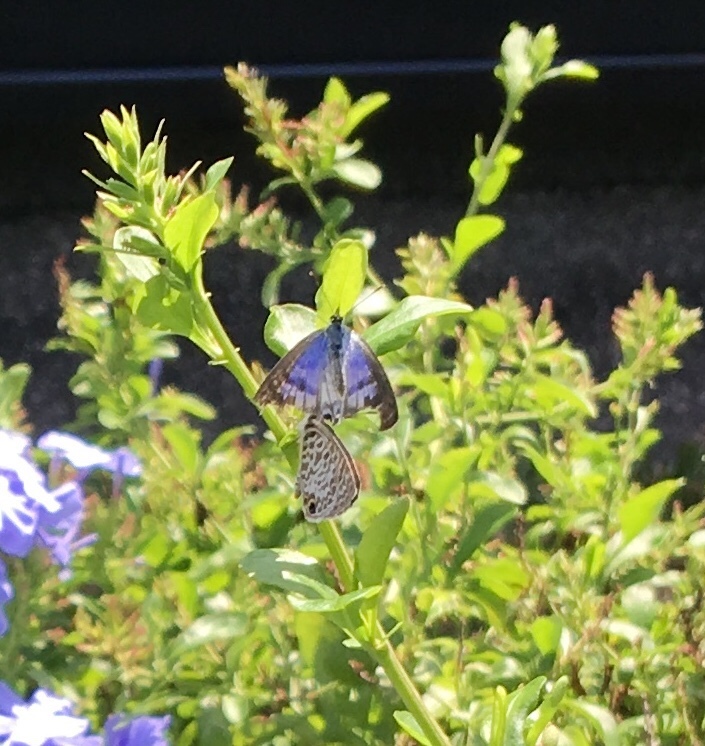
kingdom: Animalia
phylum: Arthropoda
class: Insecta
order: Lepidoptera
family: Lycaenidae
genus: Leptotes
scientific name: Leptotes cassius
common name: Cassius blue
